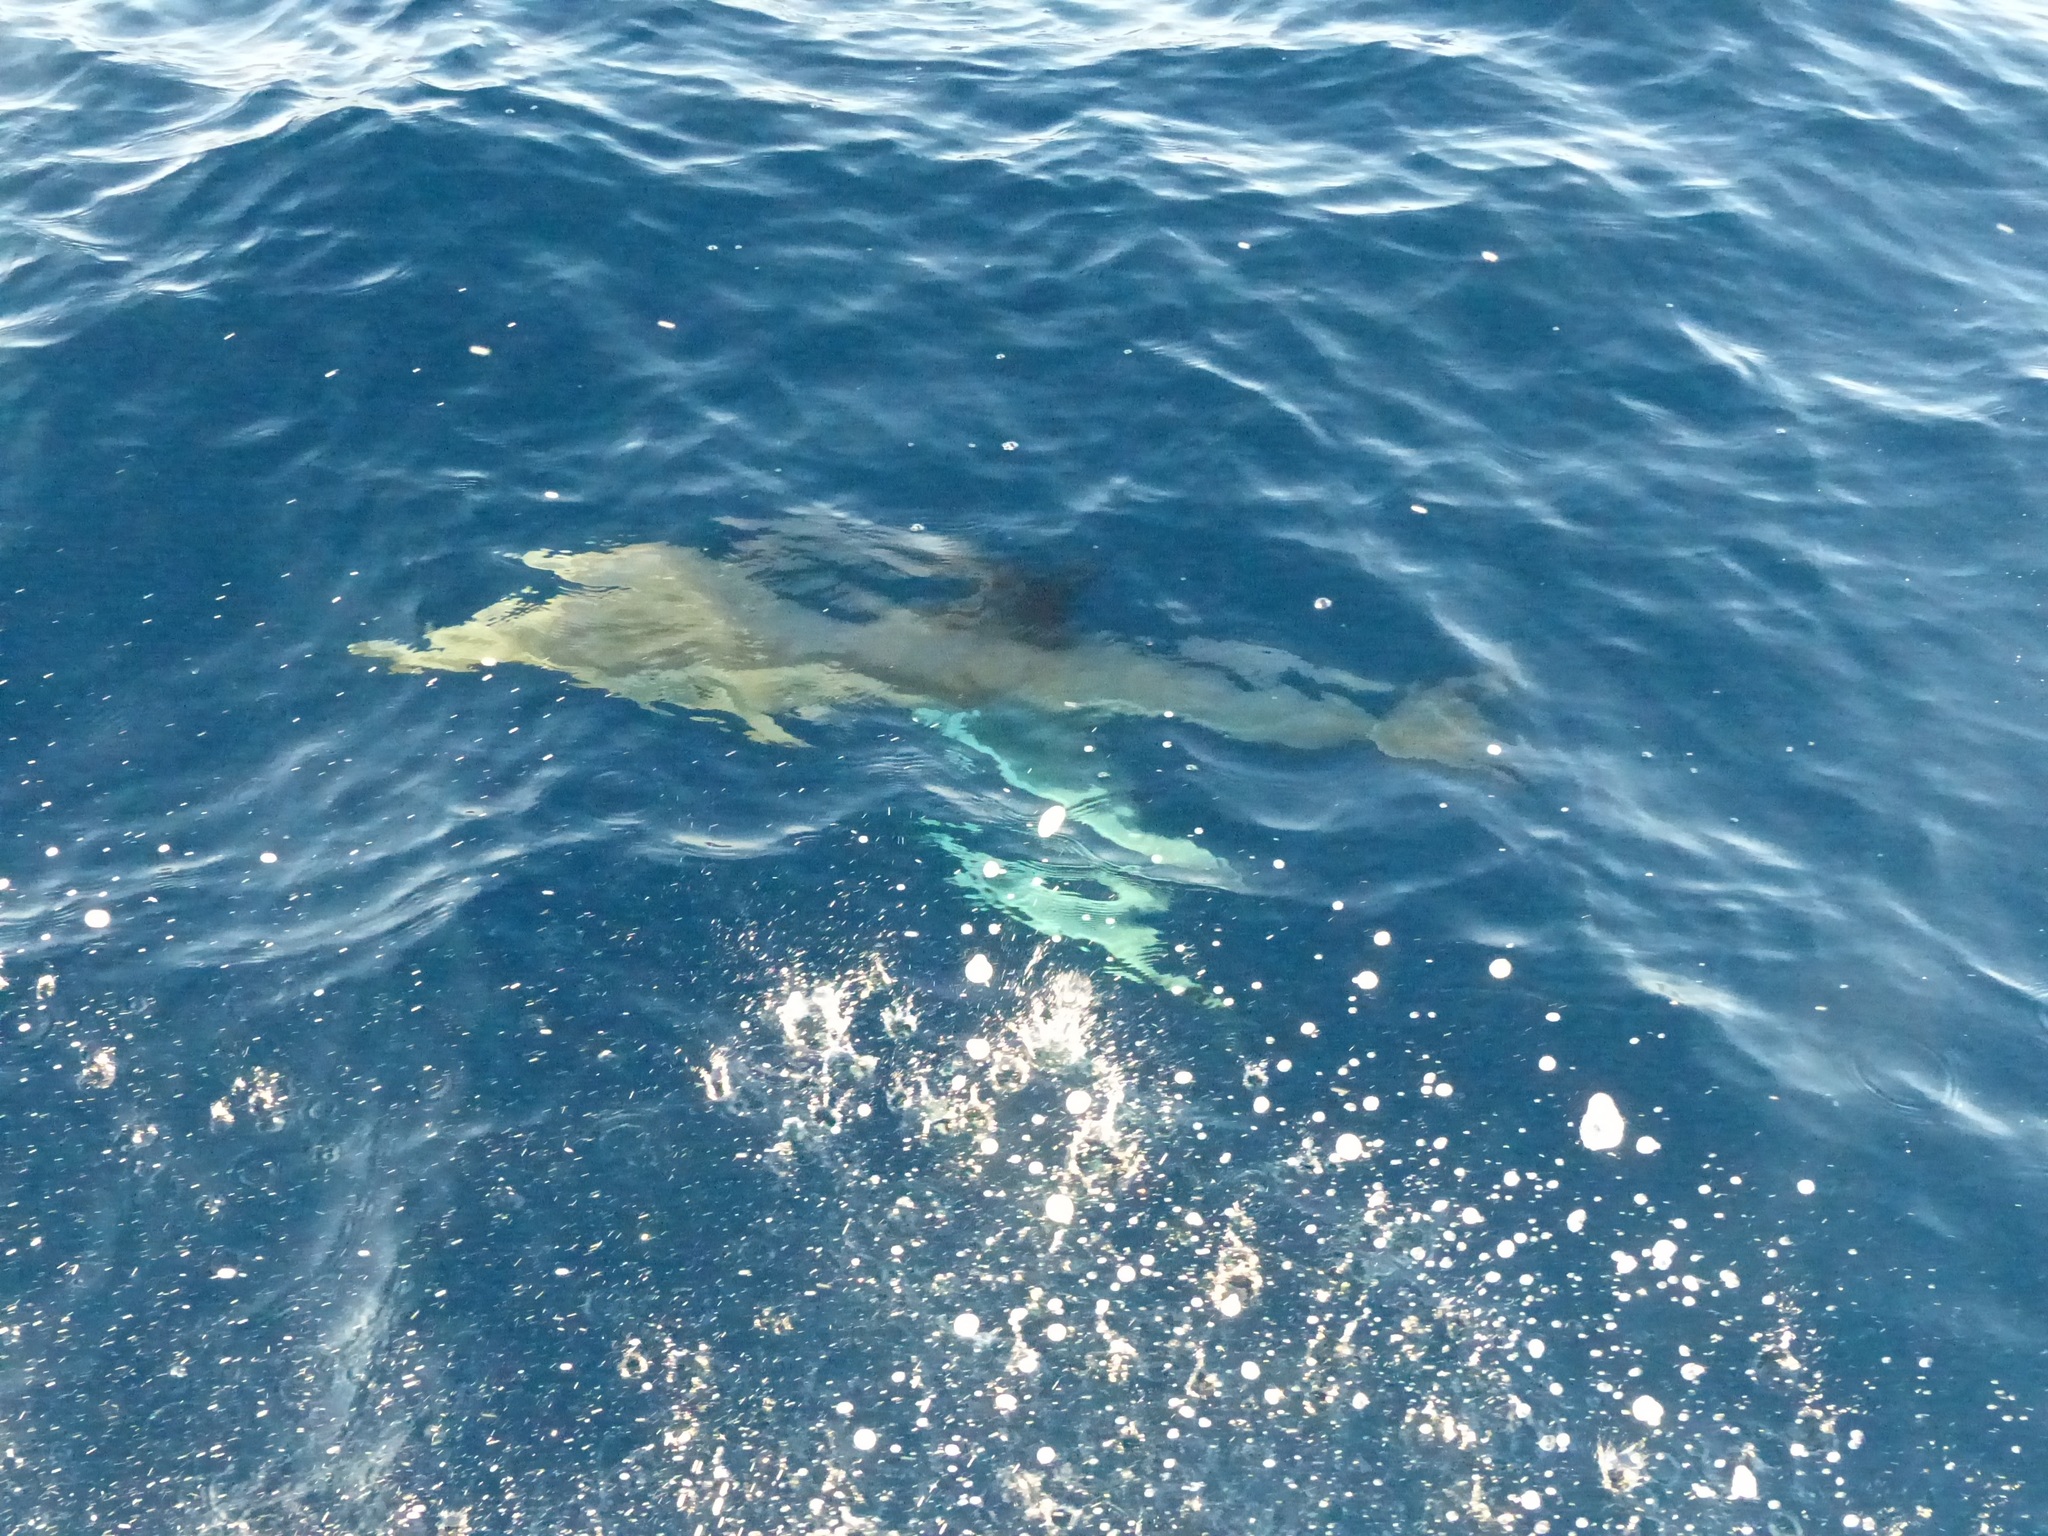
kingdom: Animalia
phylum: Chordata
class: Mammalia
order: Cetacea
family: Delphinidae
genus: Delphinus
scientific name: Delphinus delphis
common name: Common dolphin
